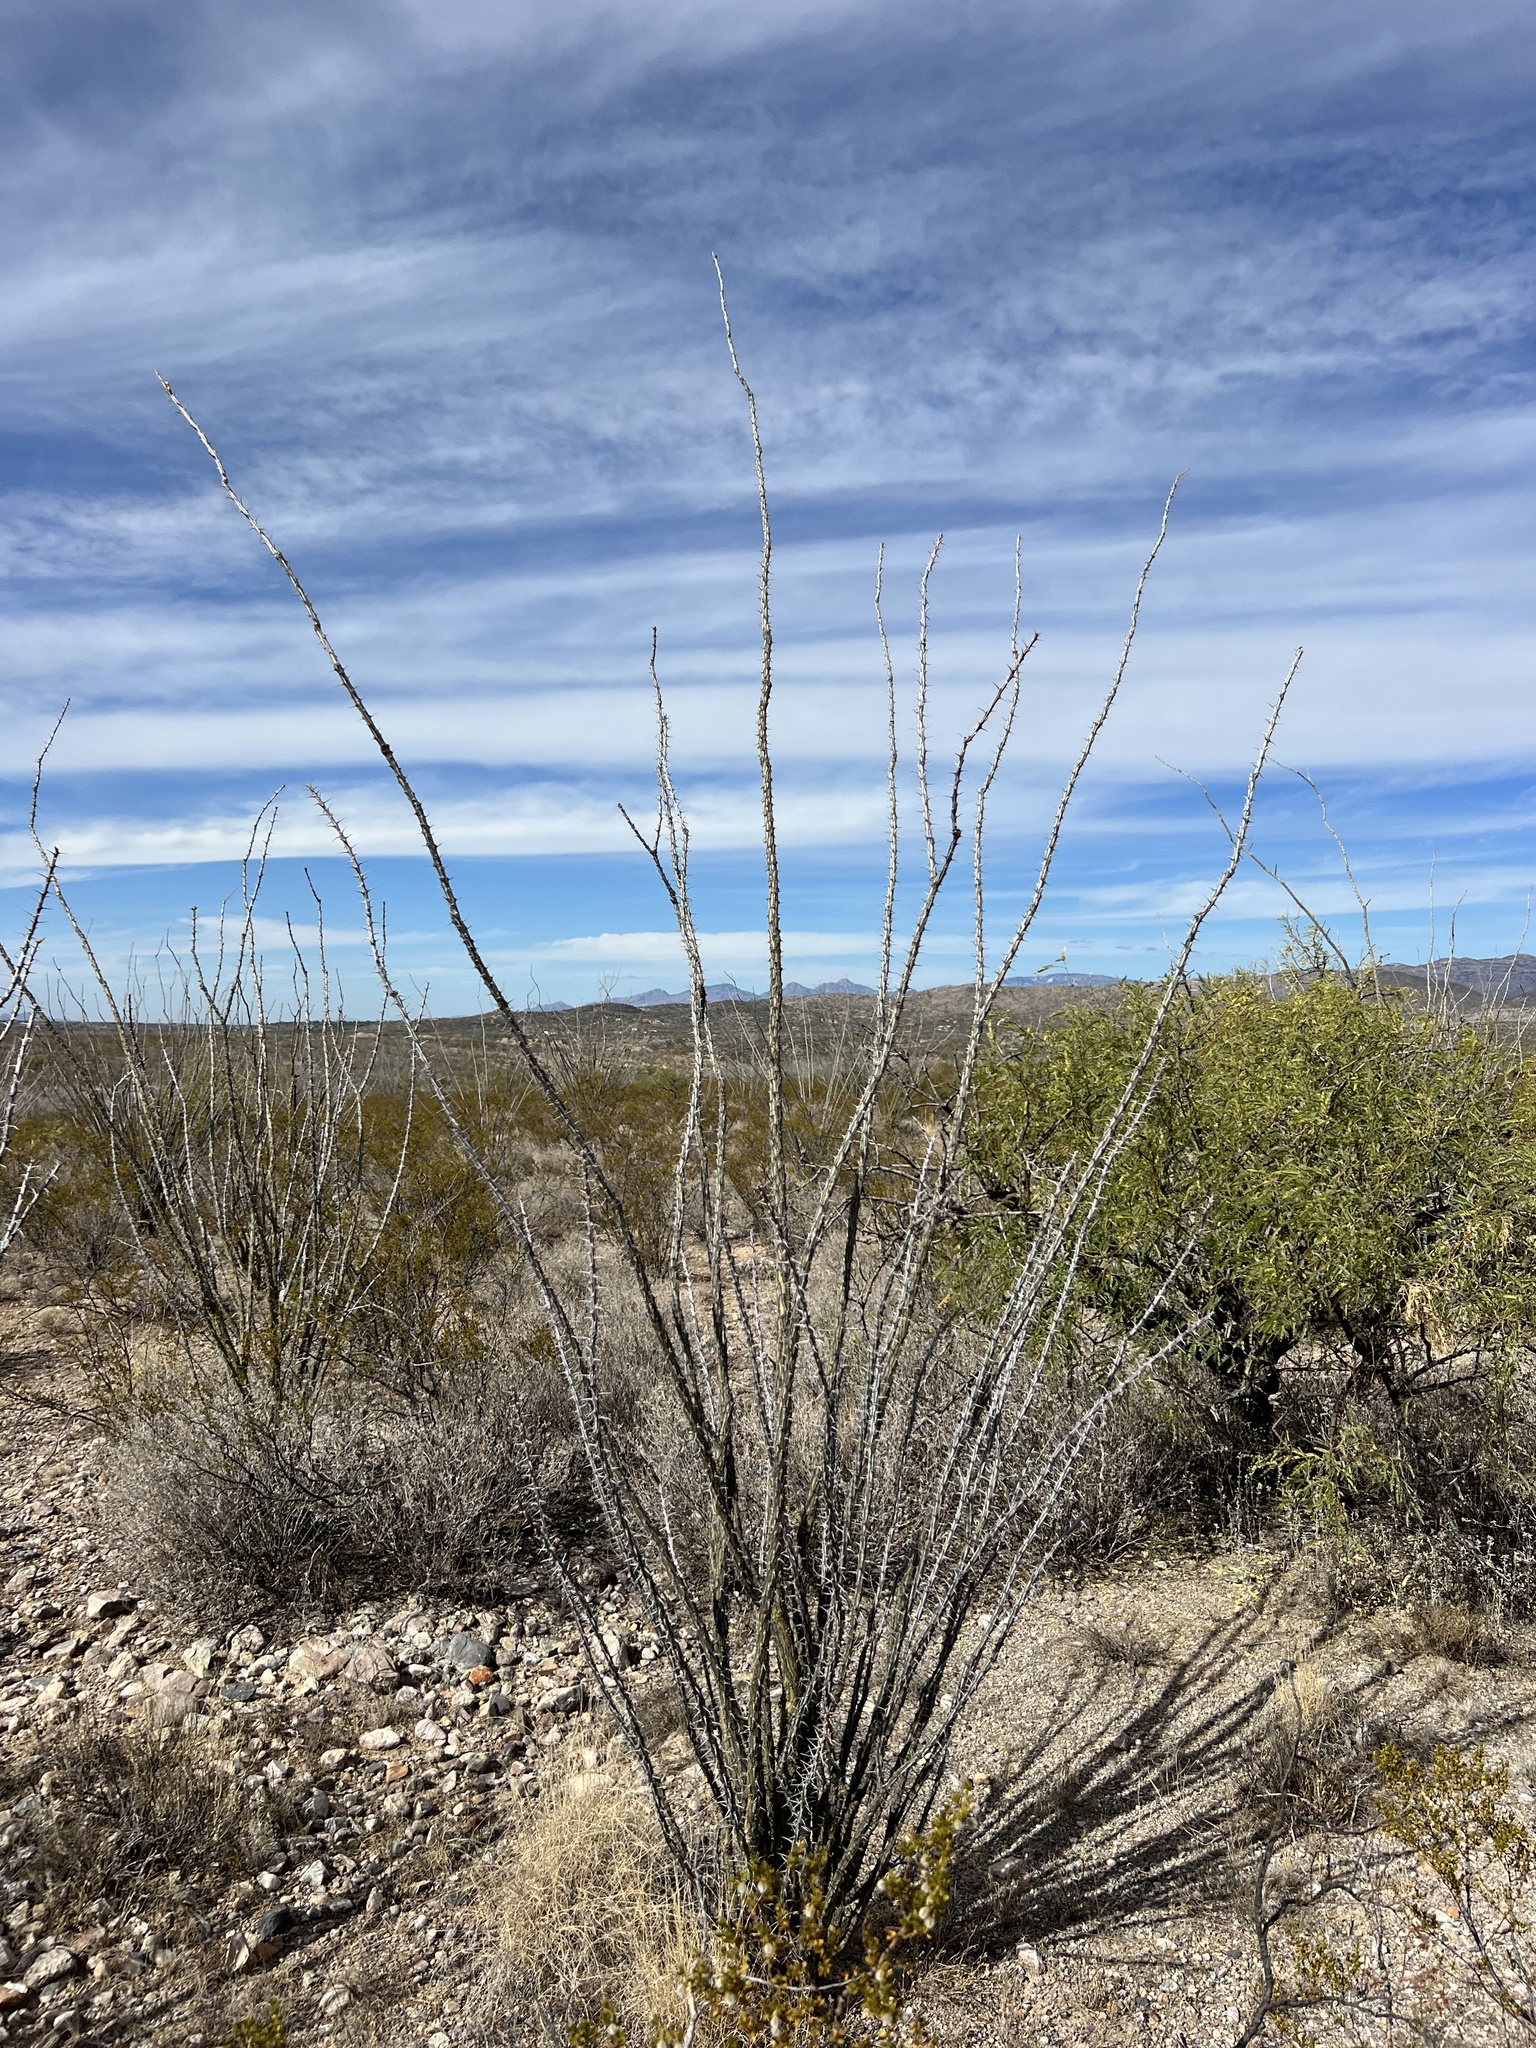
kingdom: Plantae
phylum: Tracheophyta
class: Magnoliopsida
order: Ericales
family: Fouquieriaceae
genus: Fouquieria
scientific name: Fouquieria splendens
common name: Vine-cactus
